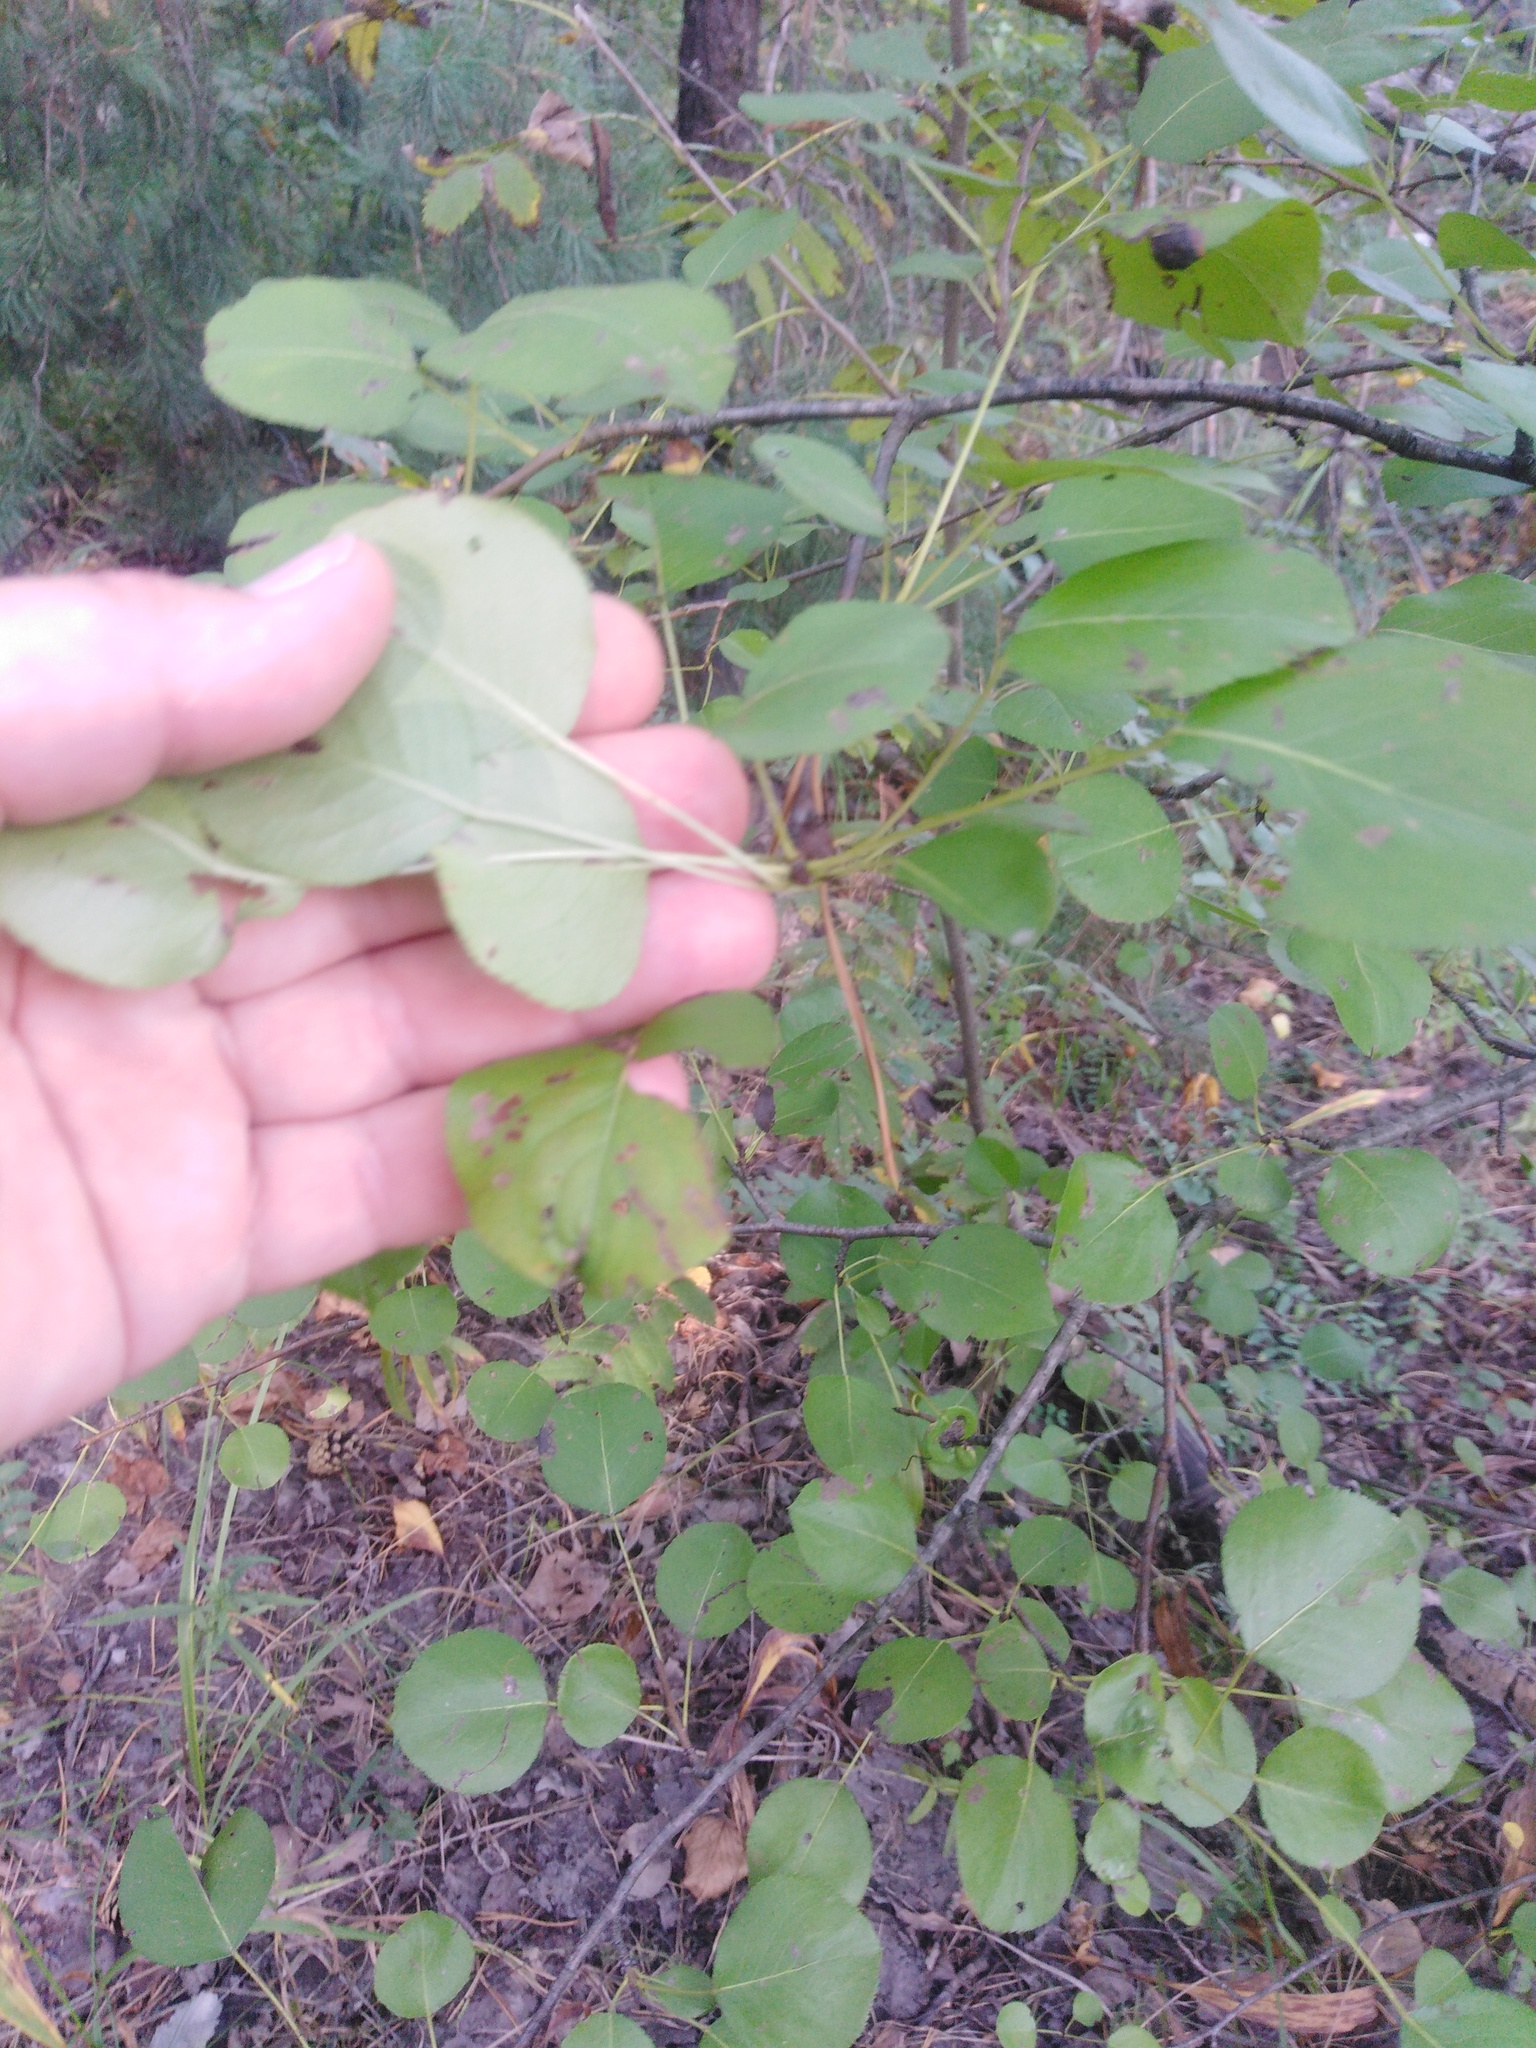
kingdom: Plantae
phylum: Tracheophyta
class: Magnoliopsida
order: Rosales
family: Rosaceae
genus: Pyrus
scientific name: Pyrus
